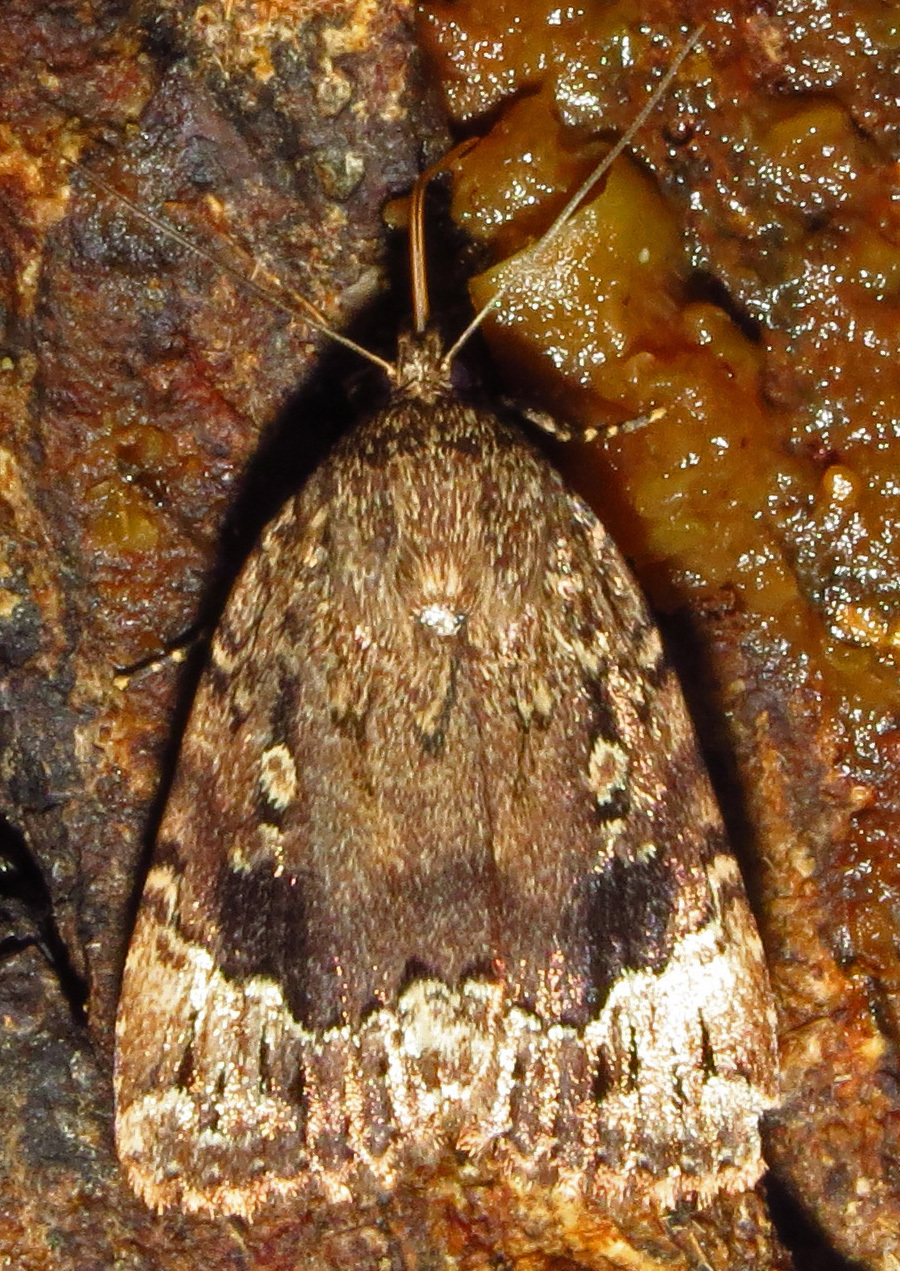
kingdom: Animalia
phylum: Arthropoda
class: Insecta
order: Lepidoptera
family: Noctuidae
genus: Amphipyra
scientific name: Amphipyra pyramidoides
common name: American copper underwing
